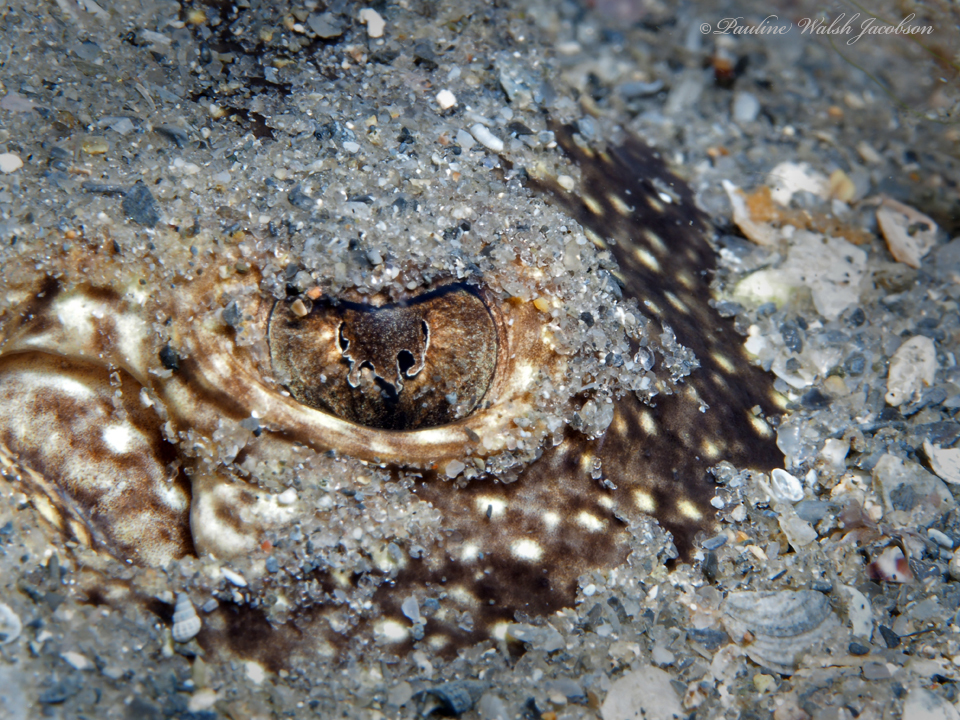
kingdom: Animalia
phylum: Chordata
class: Elasmobranchii
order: Myliobatiformes
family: Urotrygonidae
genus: Urobatis
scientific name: Urobatis jamaicensis
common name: Yellow stingray
